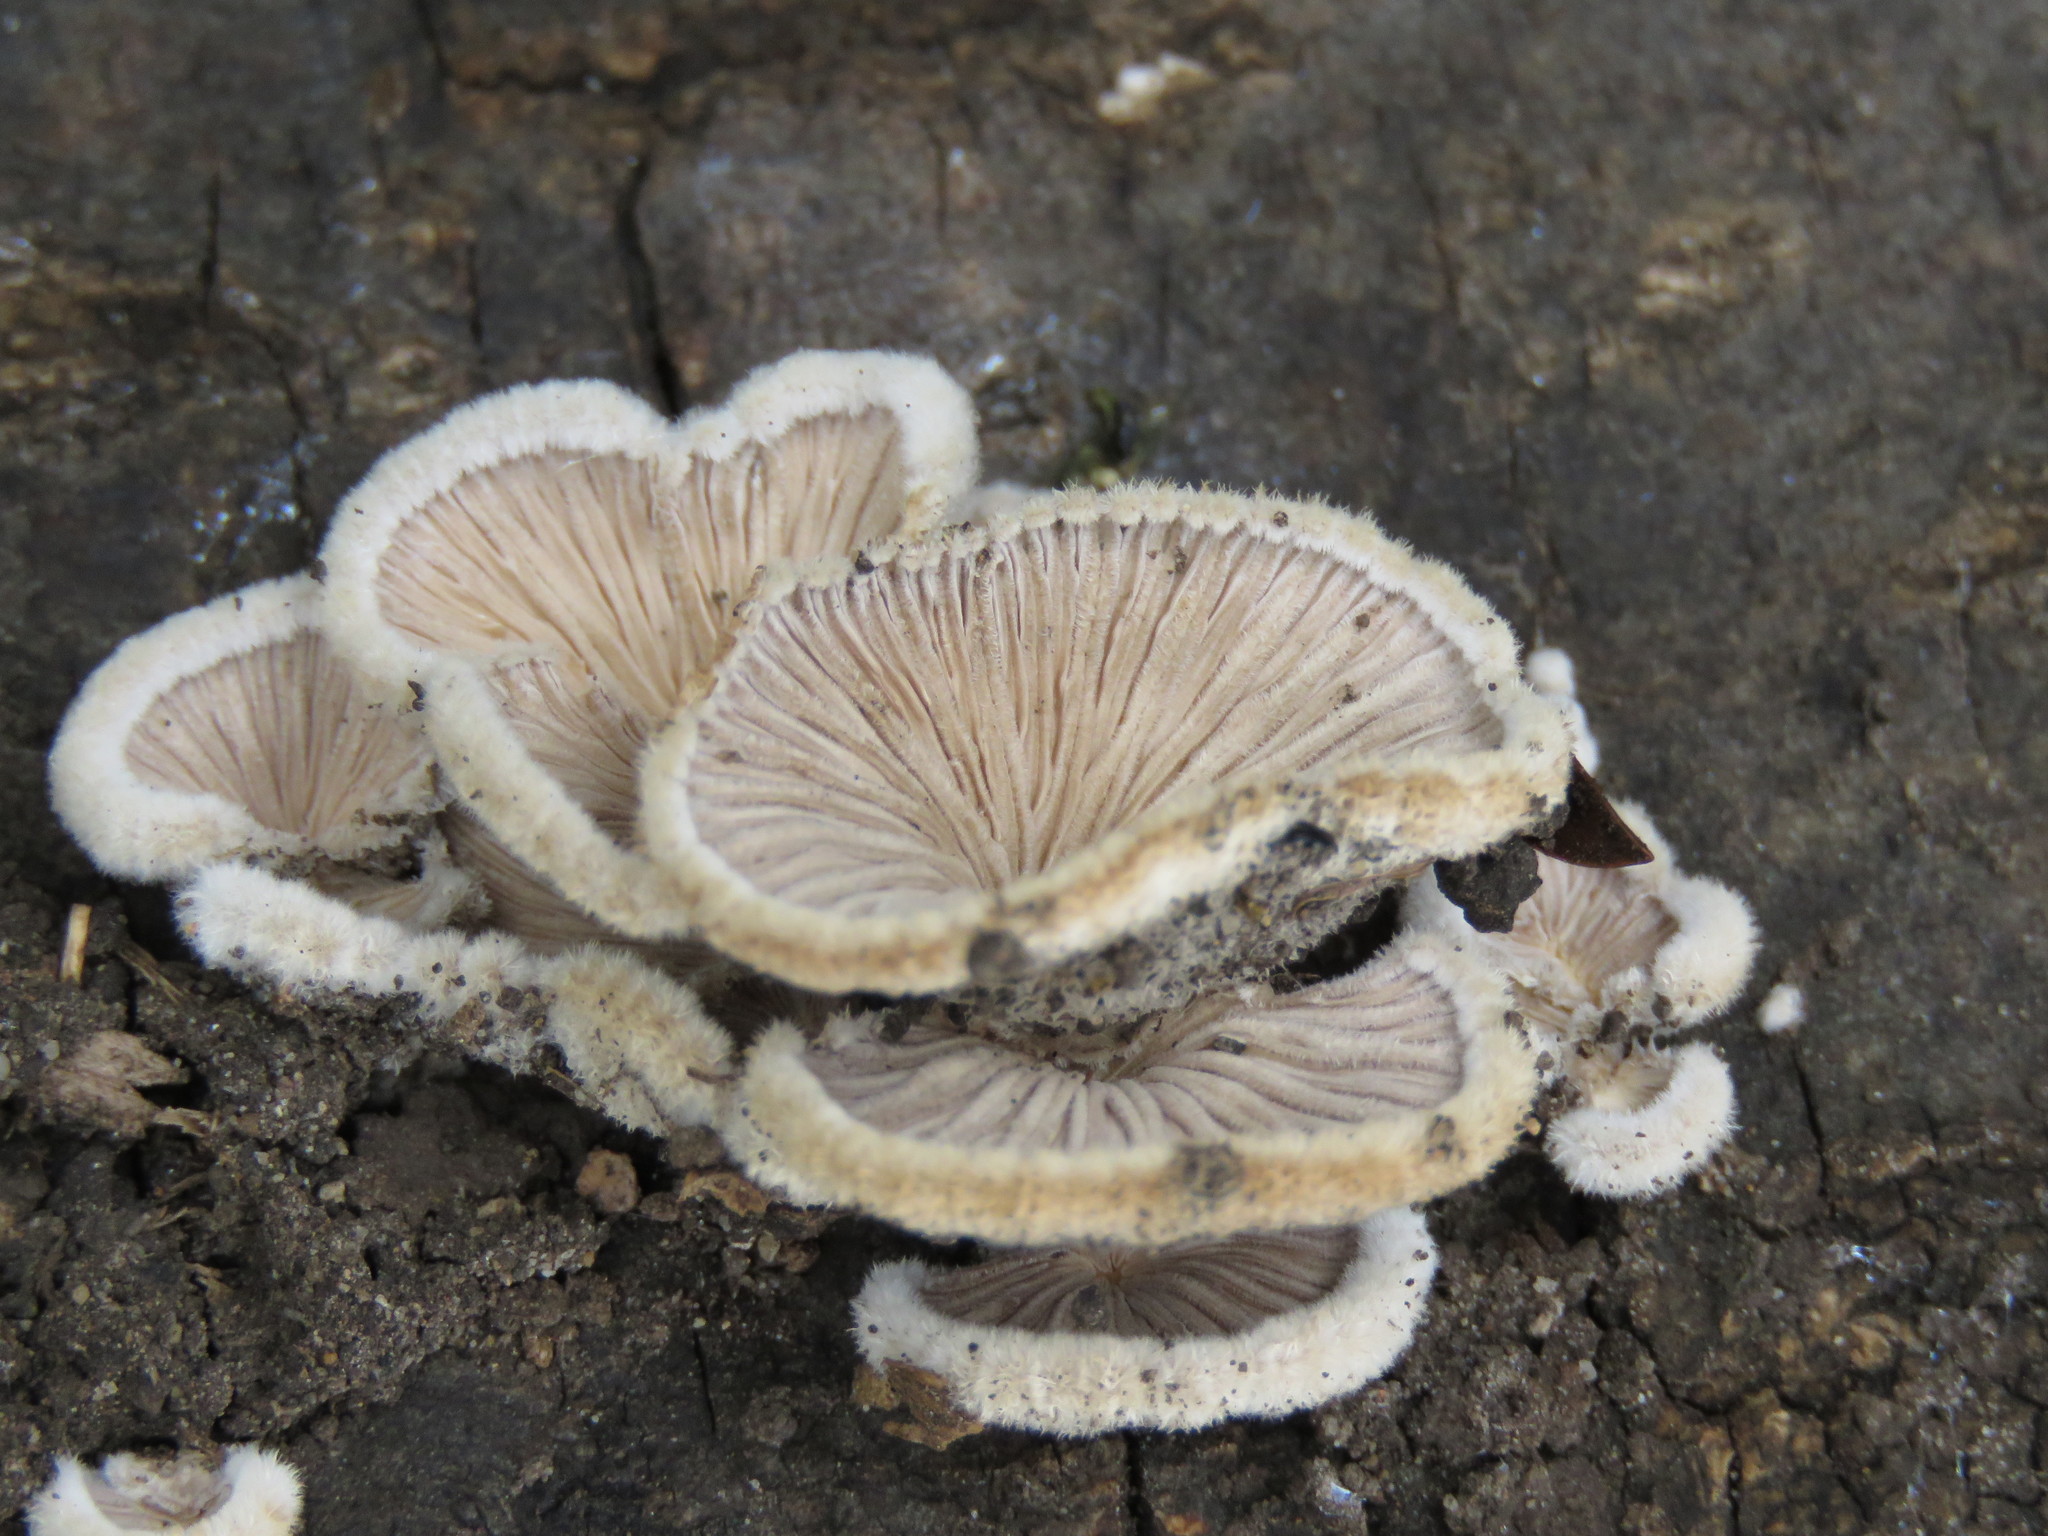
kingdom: Fungi
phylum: Basidiomycota
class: Agaricomycetes
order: Agaricales
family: Schizophyllaceae
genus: Schizophyllum
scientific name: Schizophyllum commune
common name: Common porecrust
